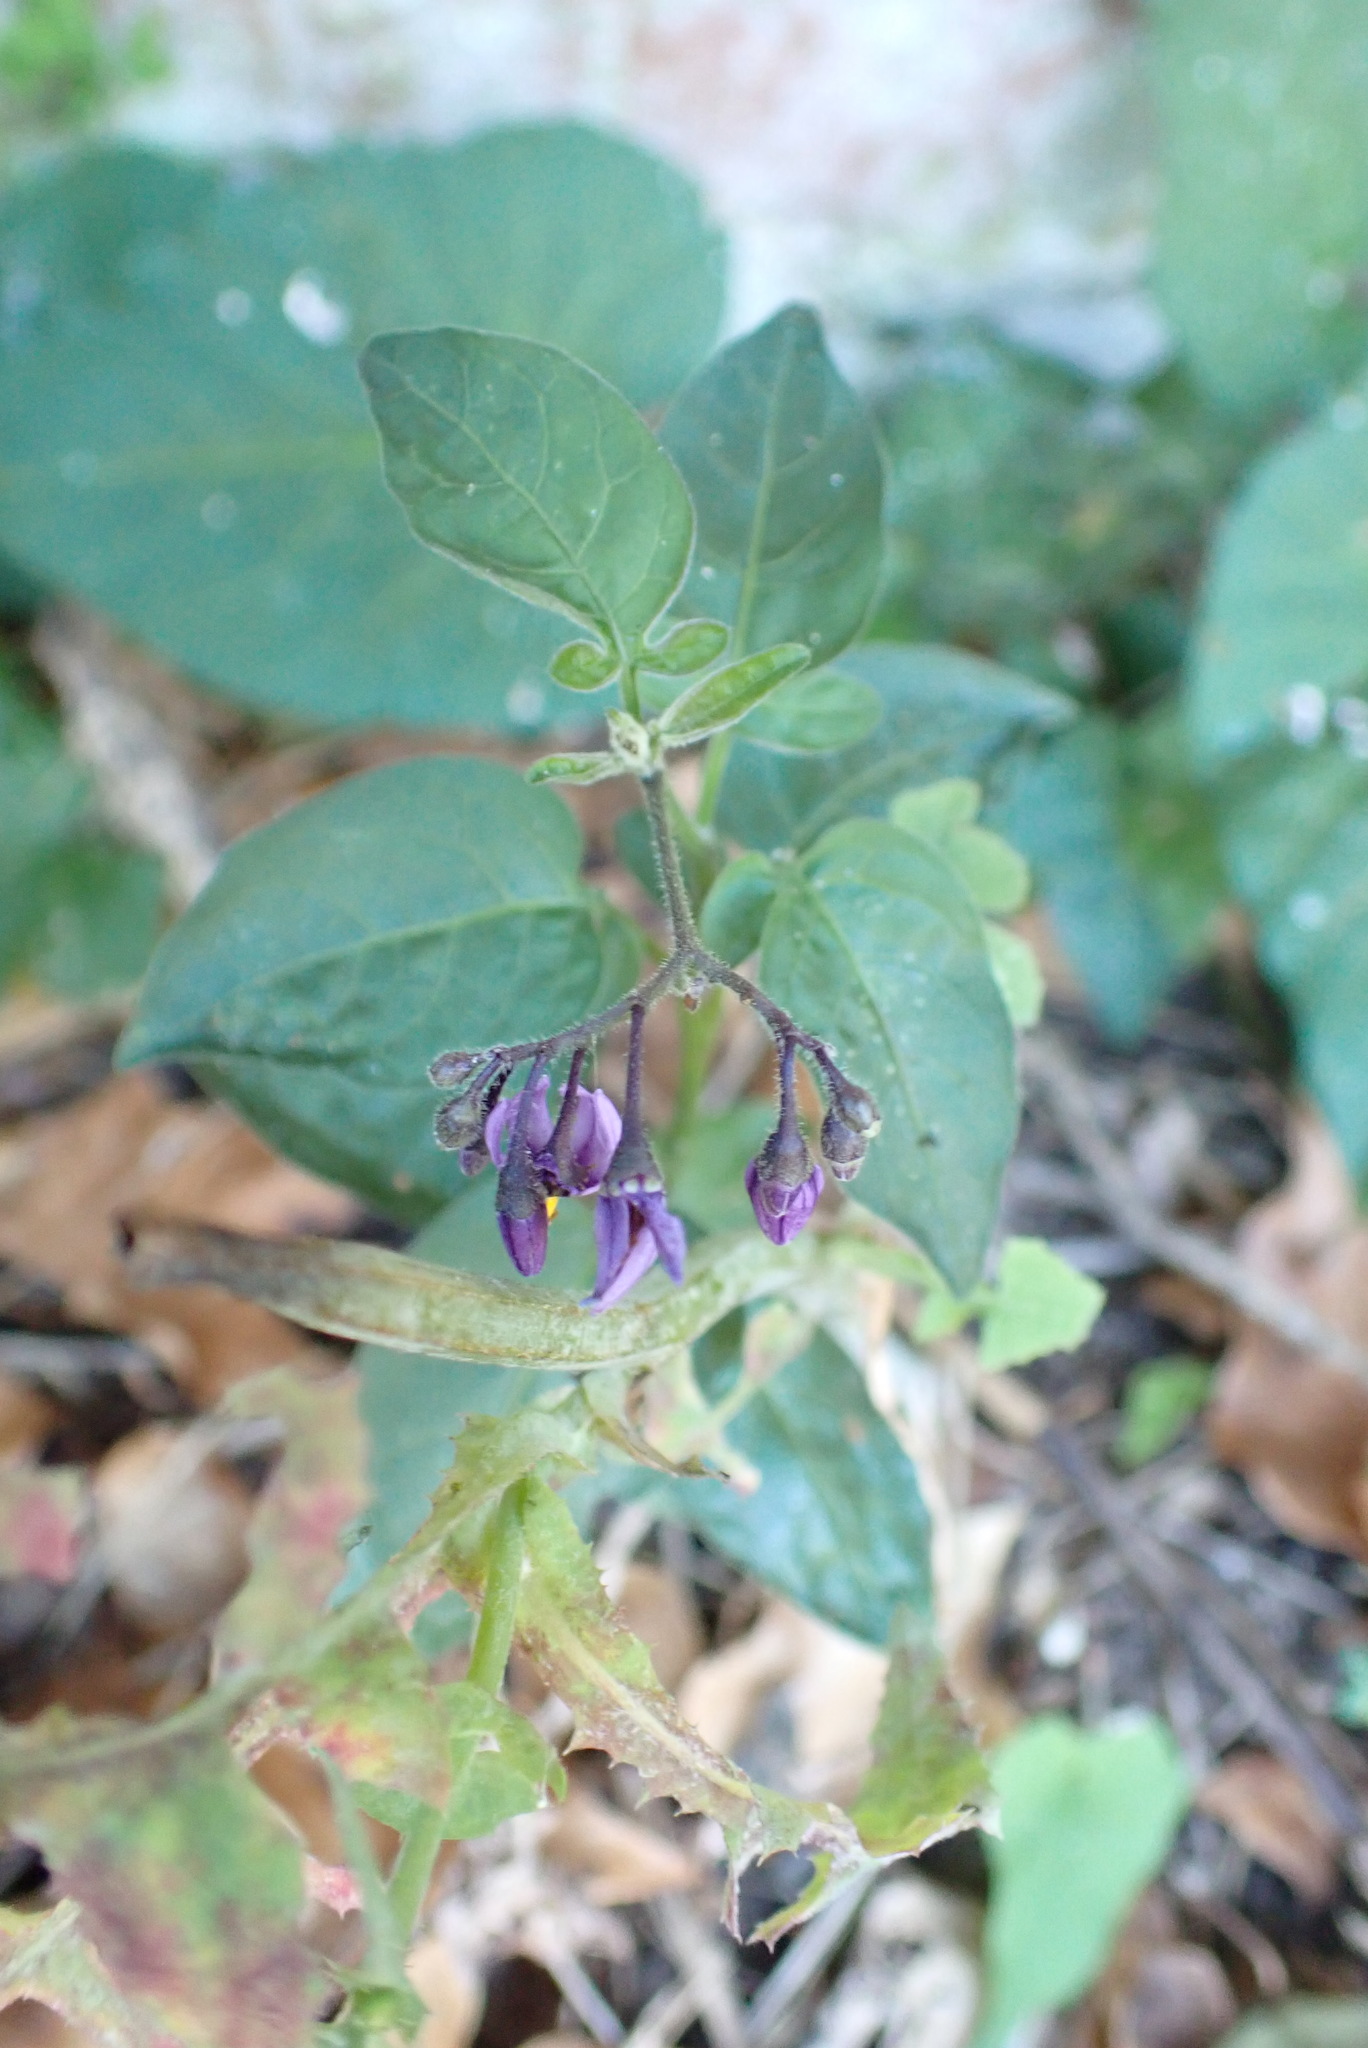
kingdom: Plantae
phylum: Tracheophyta
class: Magnoliopsida
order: Solanales
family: Solanaceae
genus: Solanum
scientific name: Solanum dulcamara
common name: Climbing nightshade
